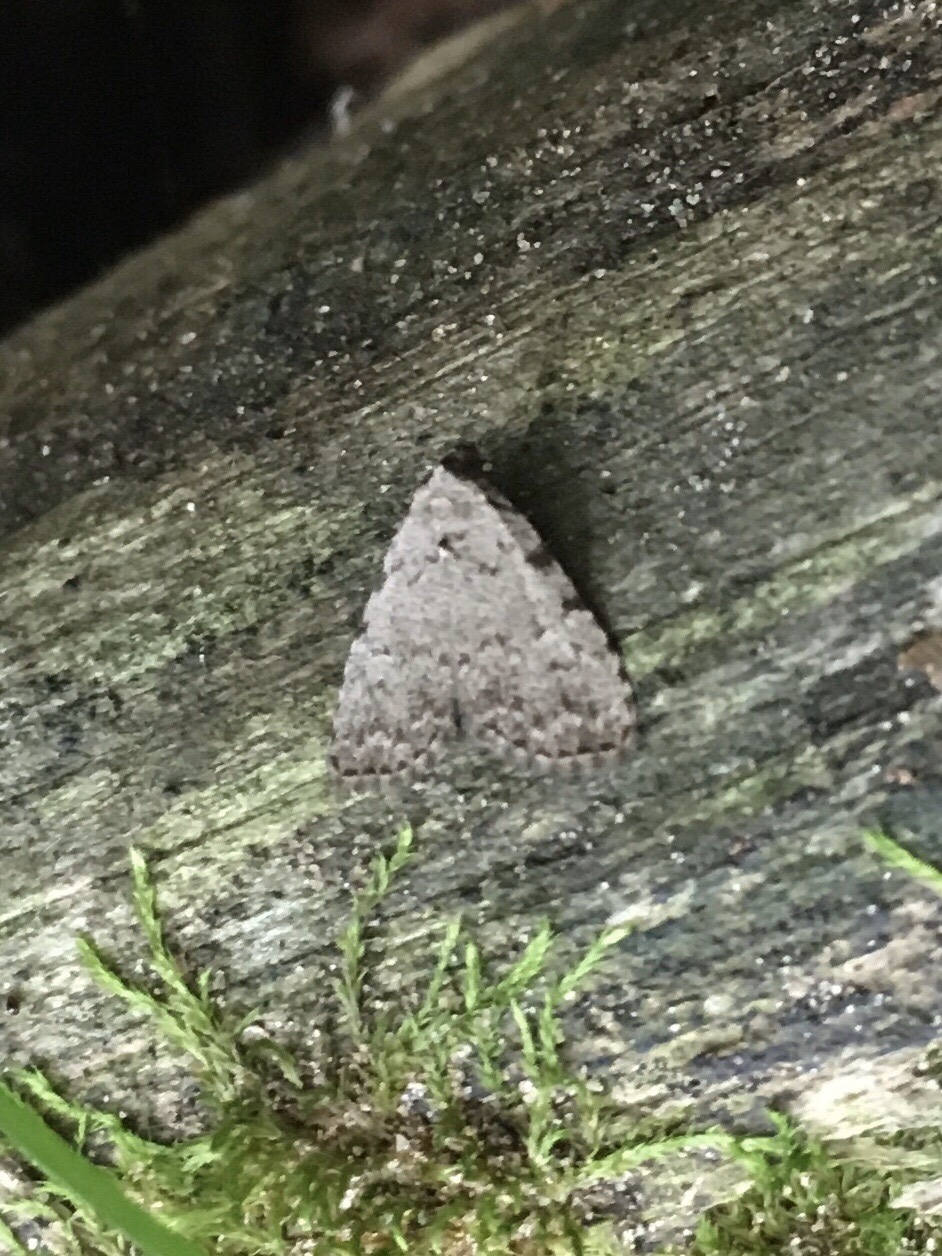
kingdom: Animalia
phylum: Arthropoda
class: Insecta
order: Lepidoptera
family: Erebidae
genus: Dyspyralis
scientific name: Dyspyralis puncticosta
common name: Spot-edged dyspyralis moth
